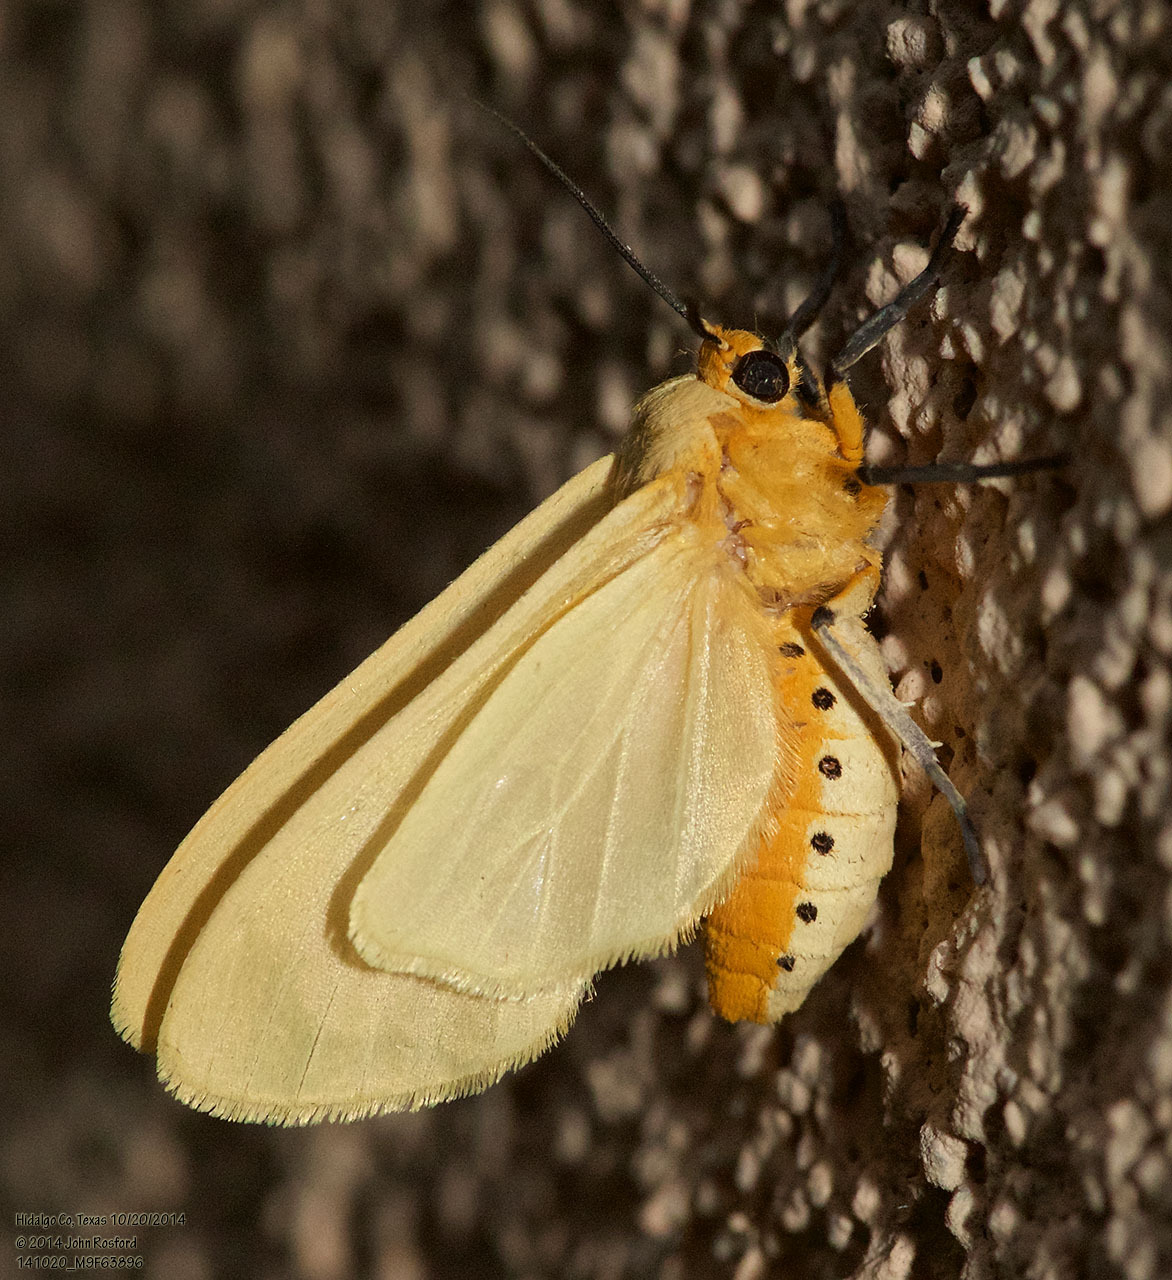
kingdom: Animalia
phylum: Arthropoda
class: Insecta
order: Lepidoptera
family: Erebidae
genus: Pareuchaetes
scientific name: Pareuchaetes insulata
